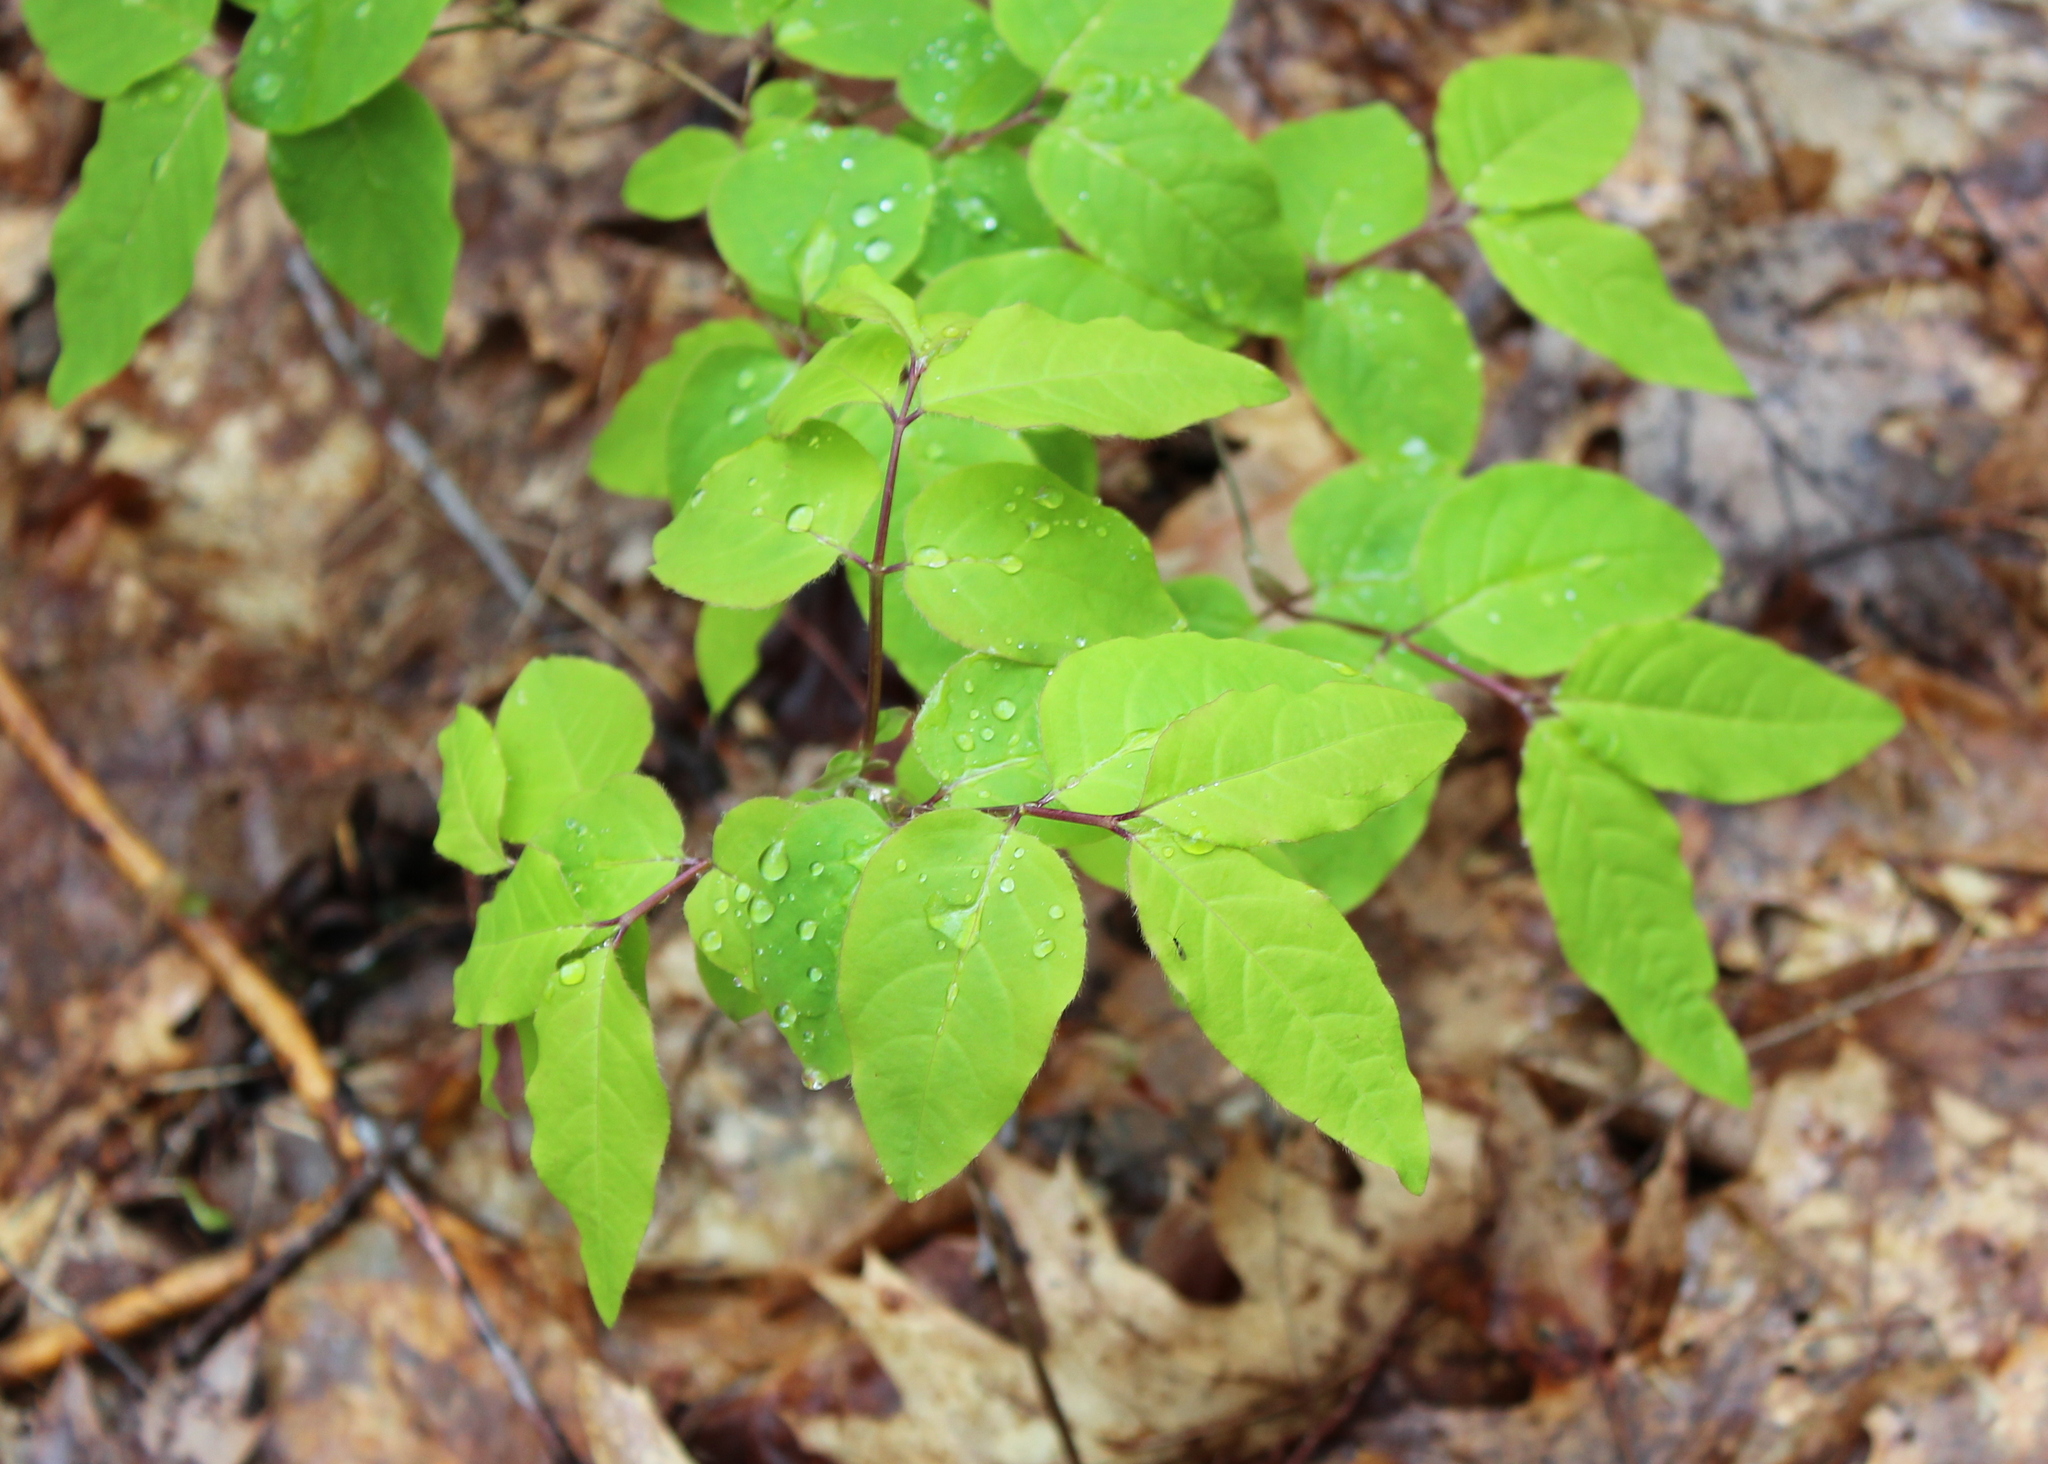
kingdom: Plantae
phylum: Tracheophyta
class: Magnoliopsida
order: Dipsacales
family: Caprifoliaceae
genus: Lonicera
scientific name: Lonicera canadensis
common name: American fly-honeysuckle
